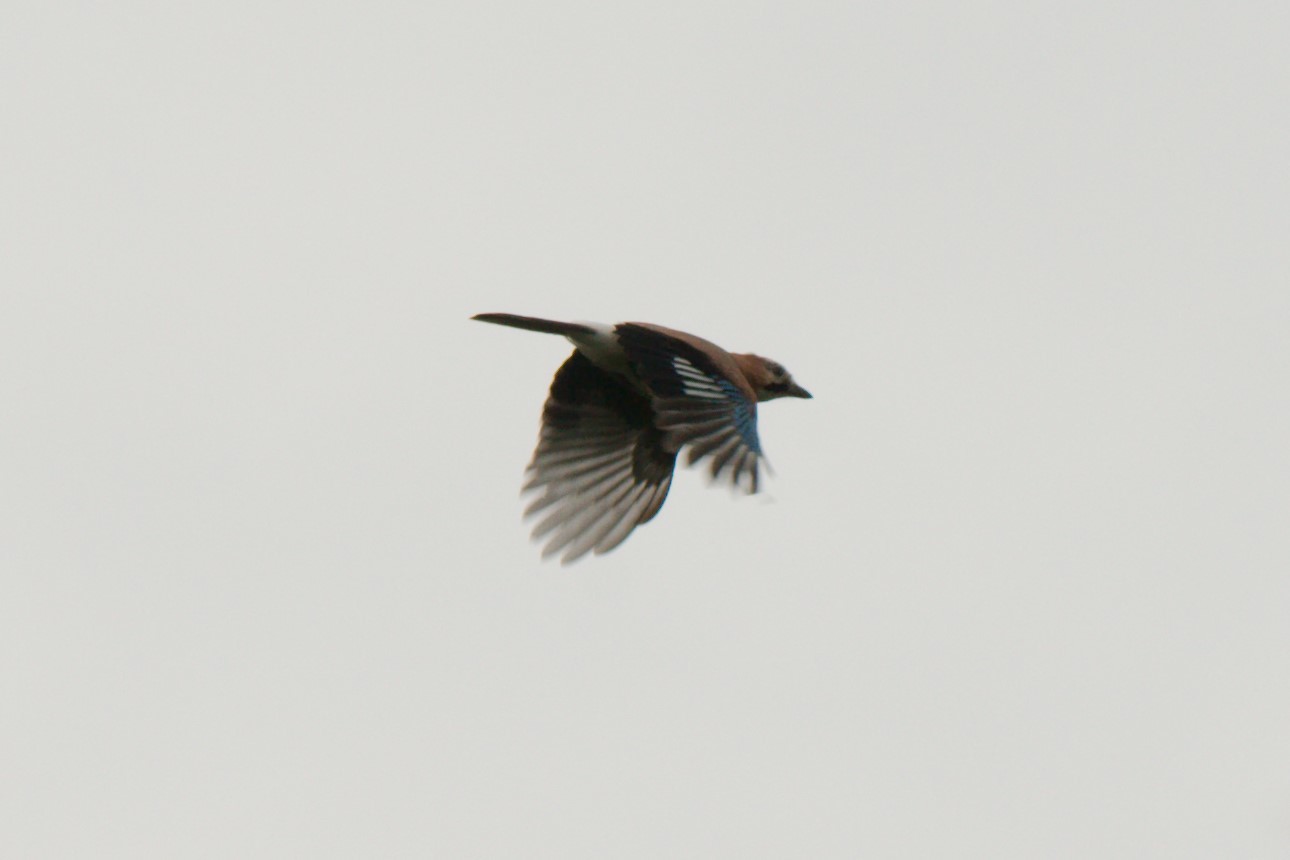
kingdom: Animalia
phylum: Chordata
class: Aves
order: Passeriformes
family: Corvidae
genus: Garrulus
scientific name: Garrulus glandarius
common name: Eurasian jay
